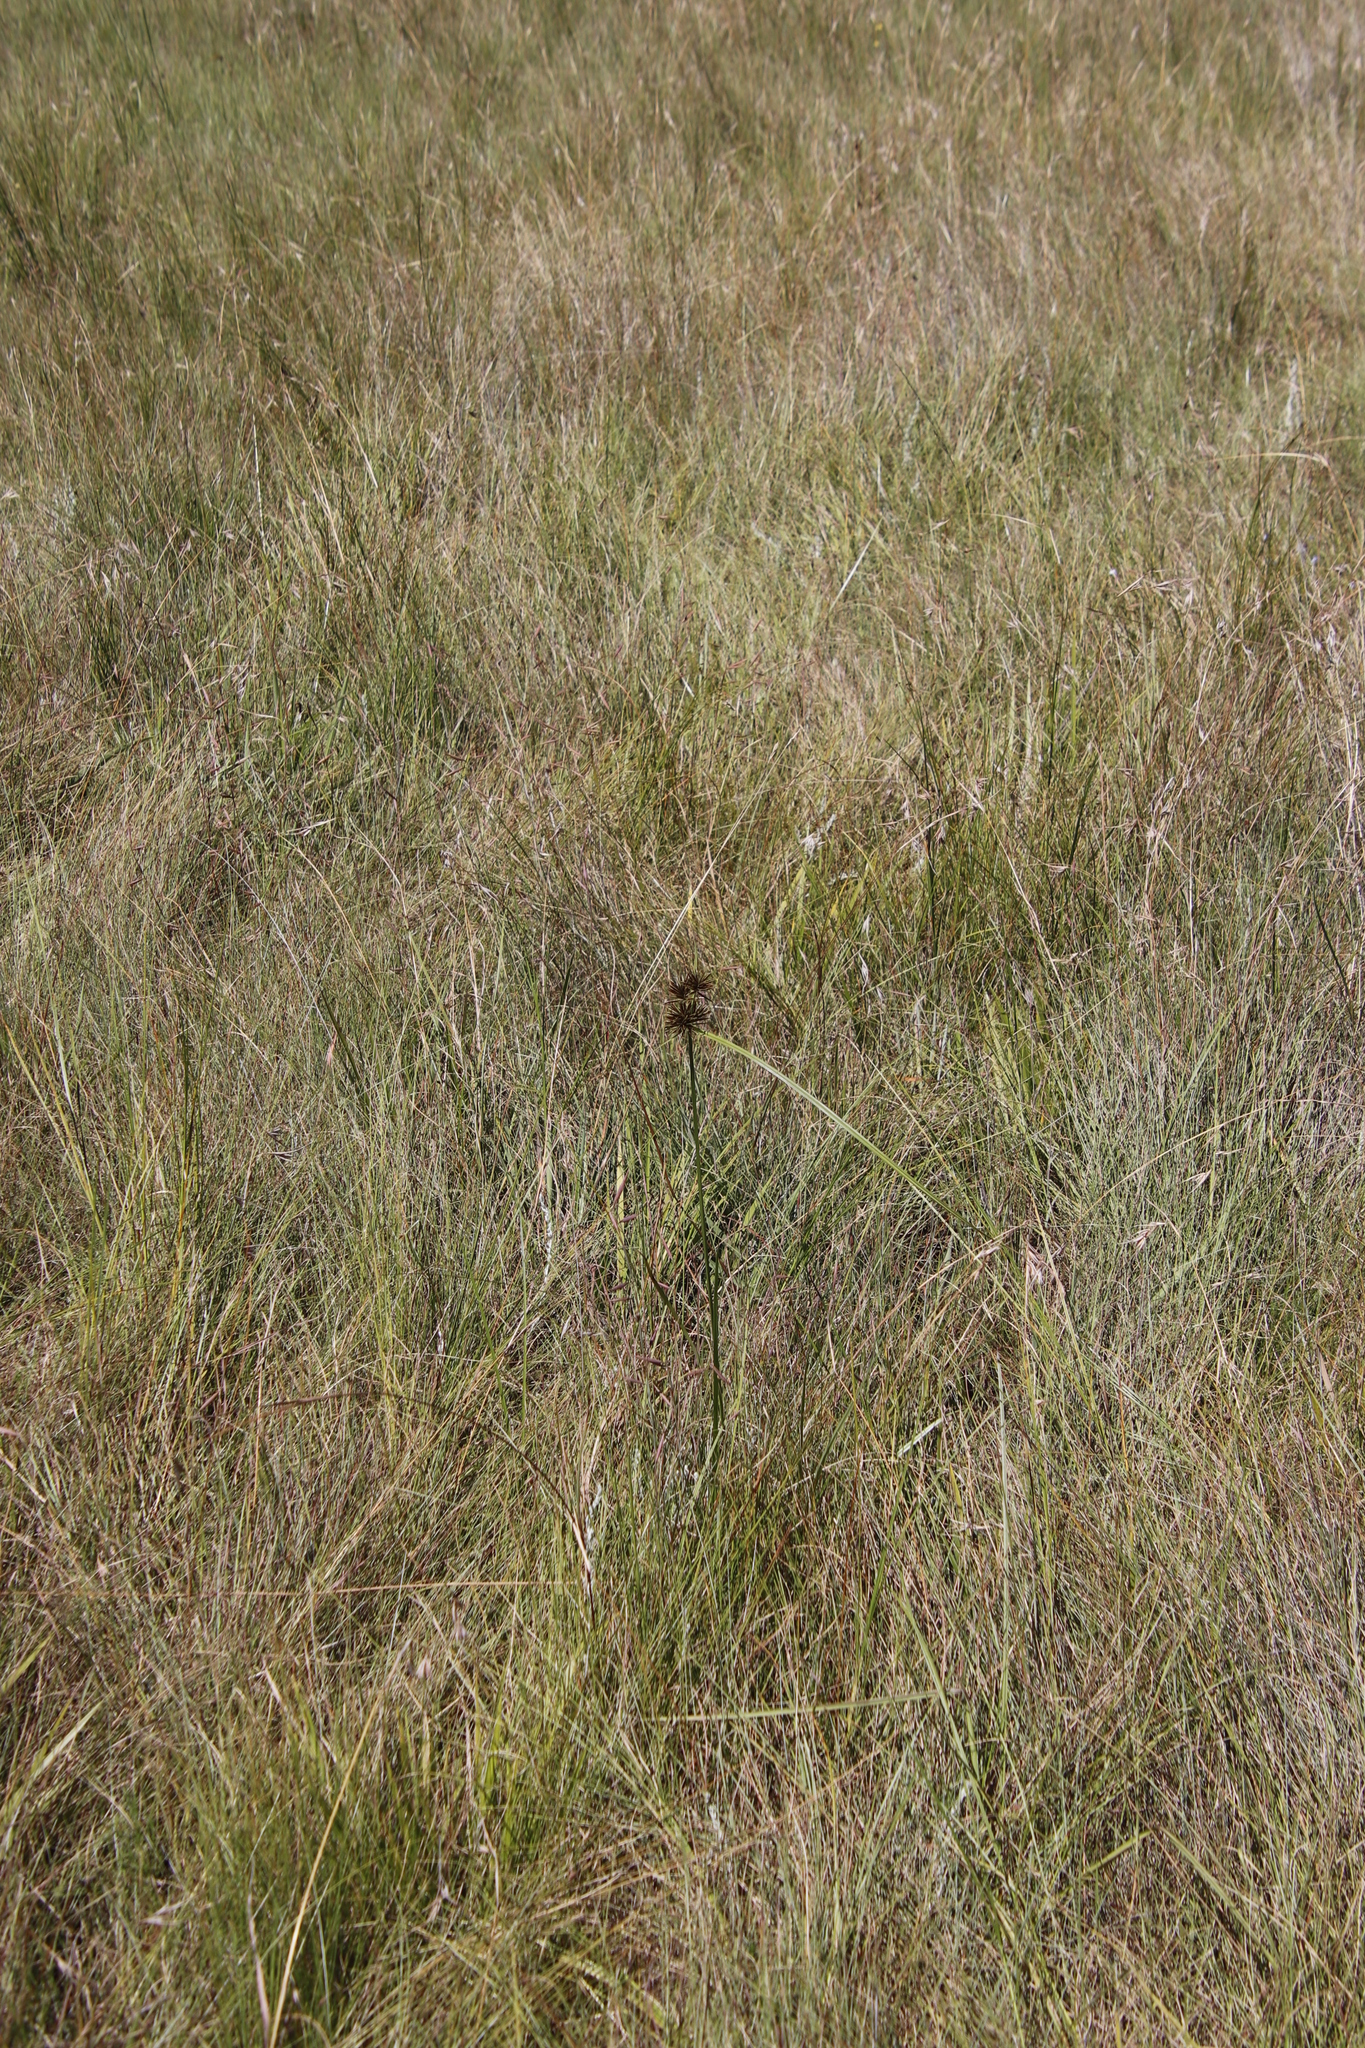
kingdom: Plantae
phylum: Tracheophyta
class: Liliopsida
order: Poales
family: Cyperaceae
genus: Cyperus
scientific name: Cyperus congestus
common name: Dense flat sedge
